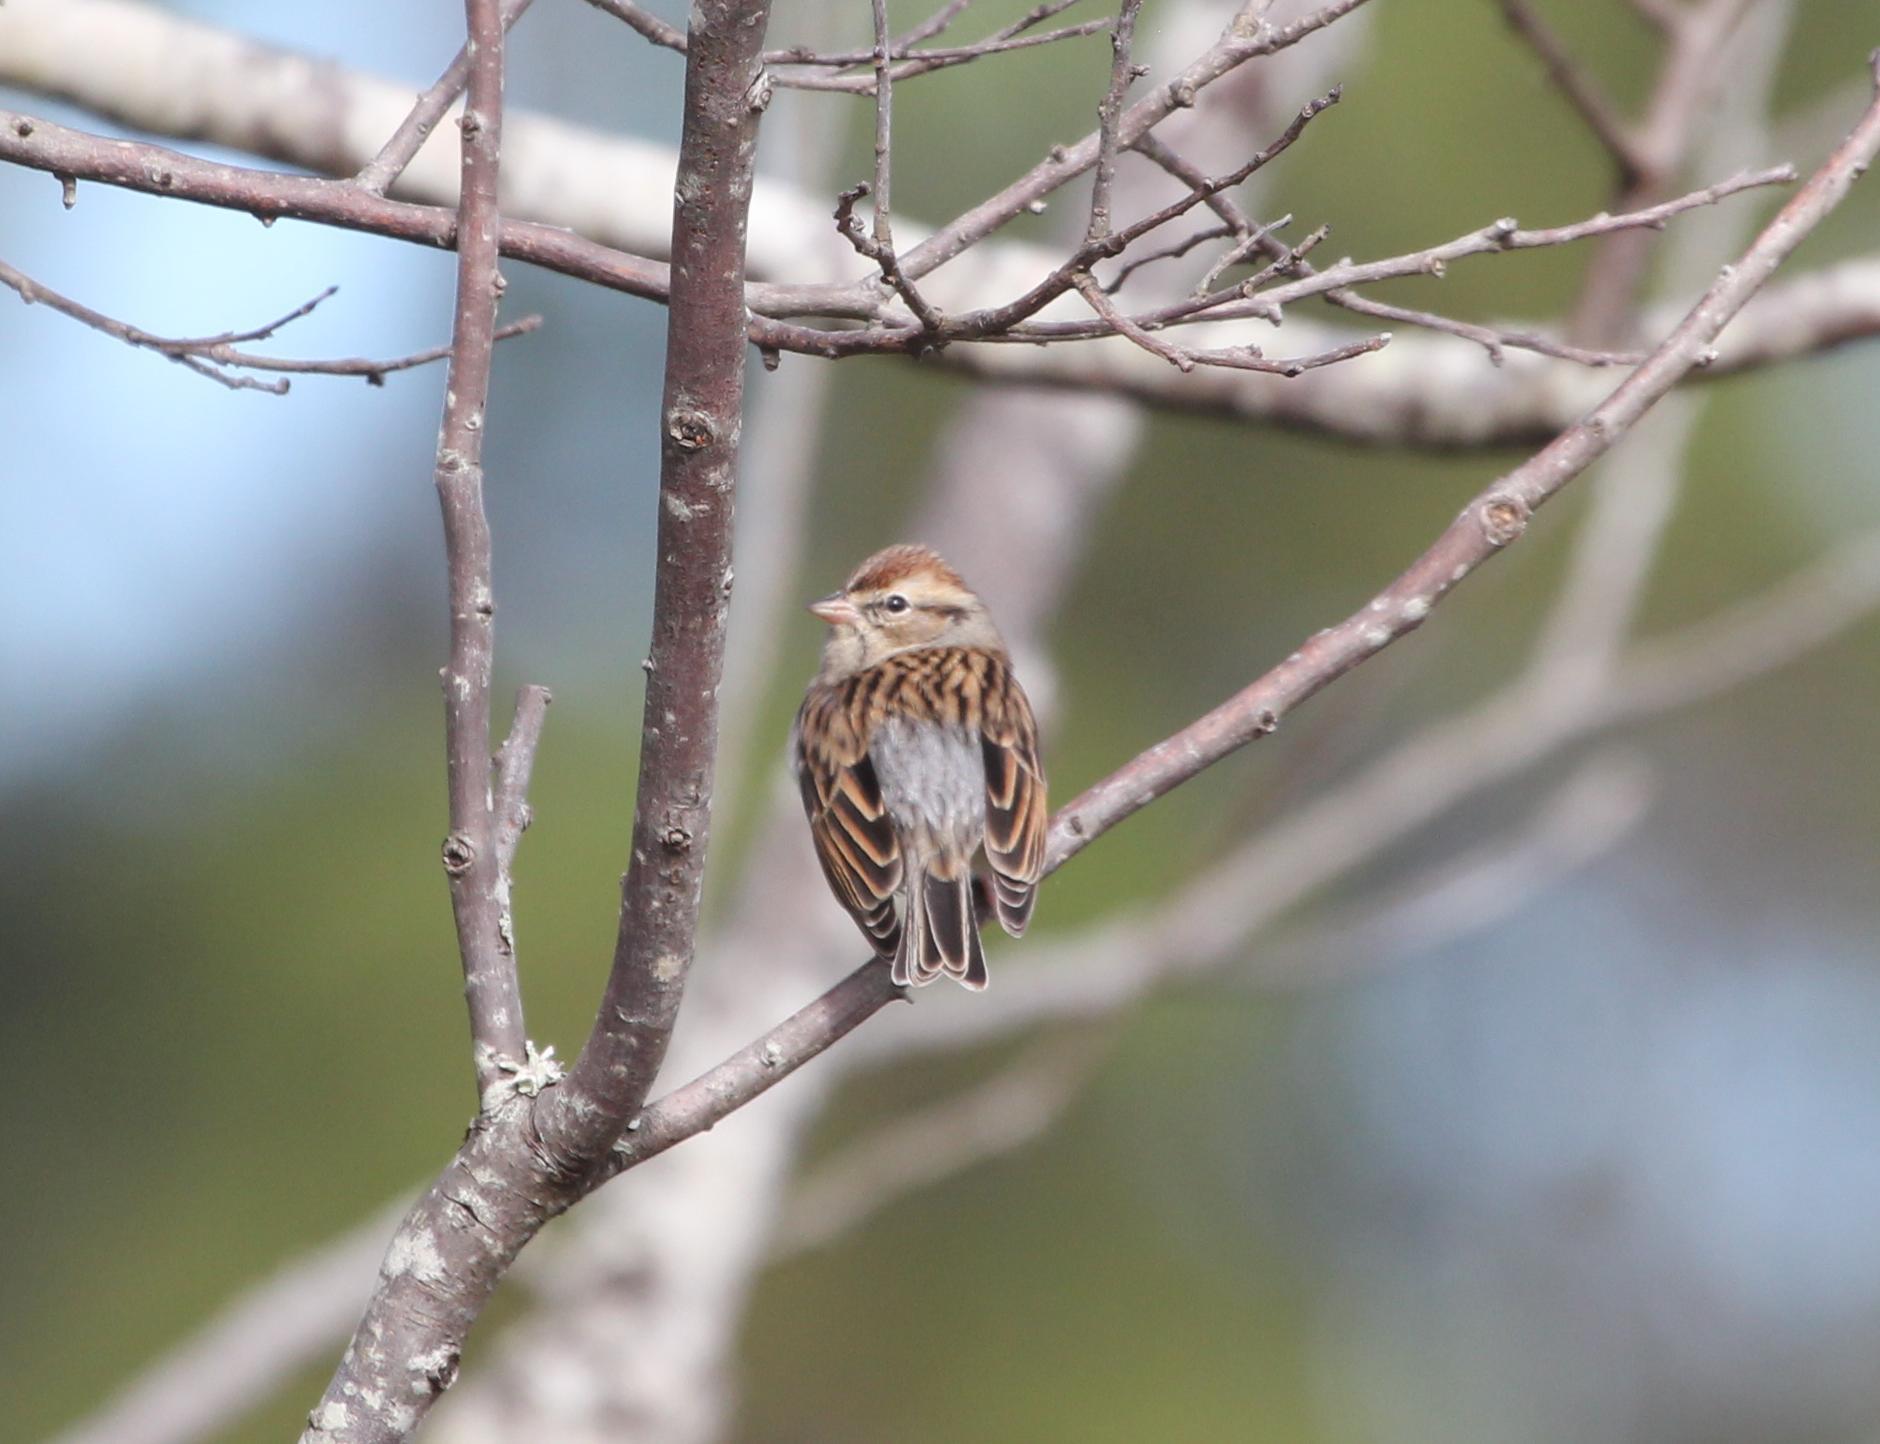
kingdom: Animalia
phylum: Chordata
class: Aves
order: Passeriformes
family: Passerellidae
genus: Spizella
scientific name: Spizella passerina
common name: Chipping sparrow
